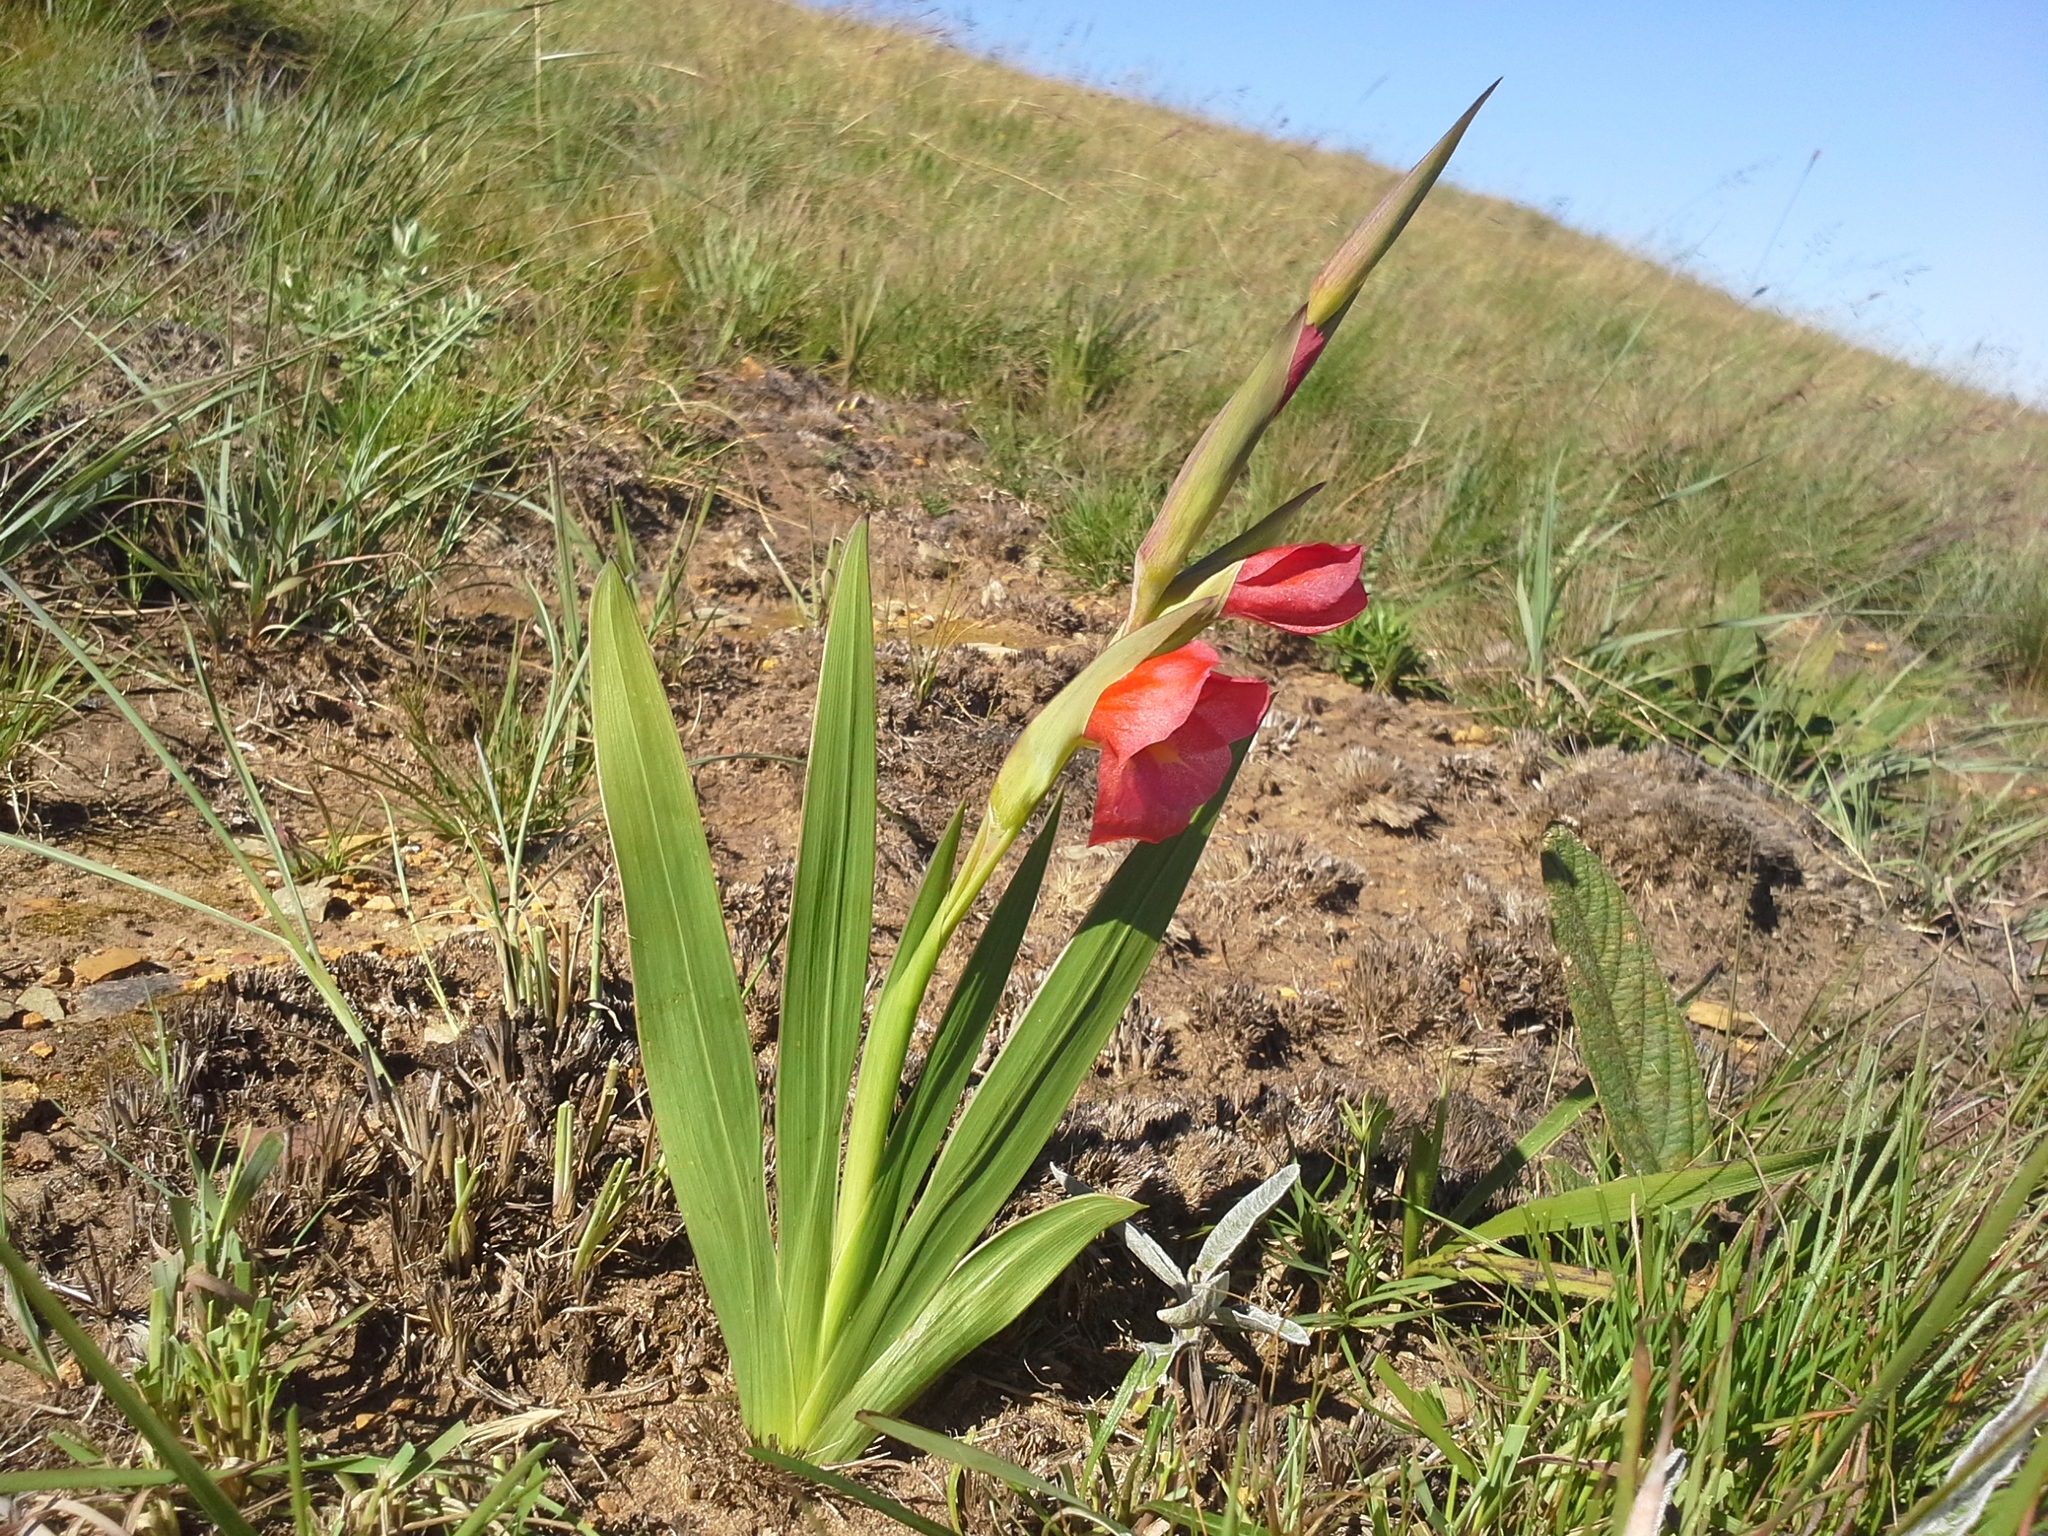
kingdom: Plantae
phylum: Tracheophyta
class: Liliopsida
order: Asparagales
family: Iridaceae
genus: Gladiolus
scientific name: Gladiolus ecklonii
